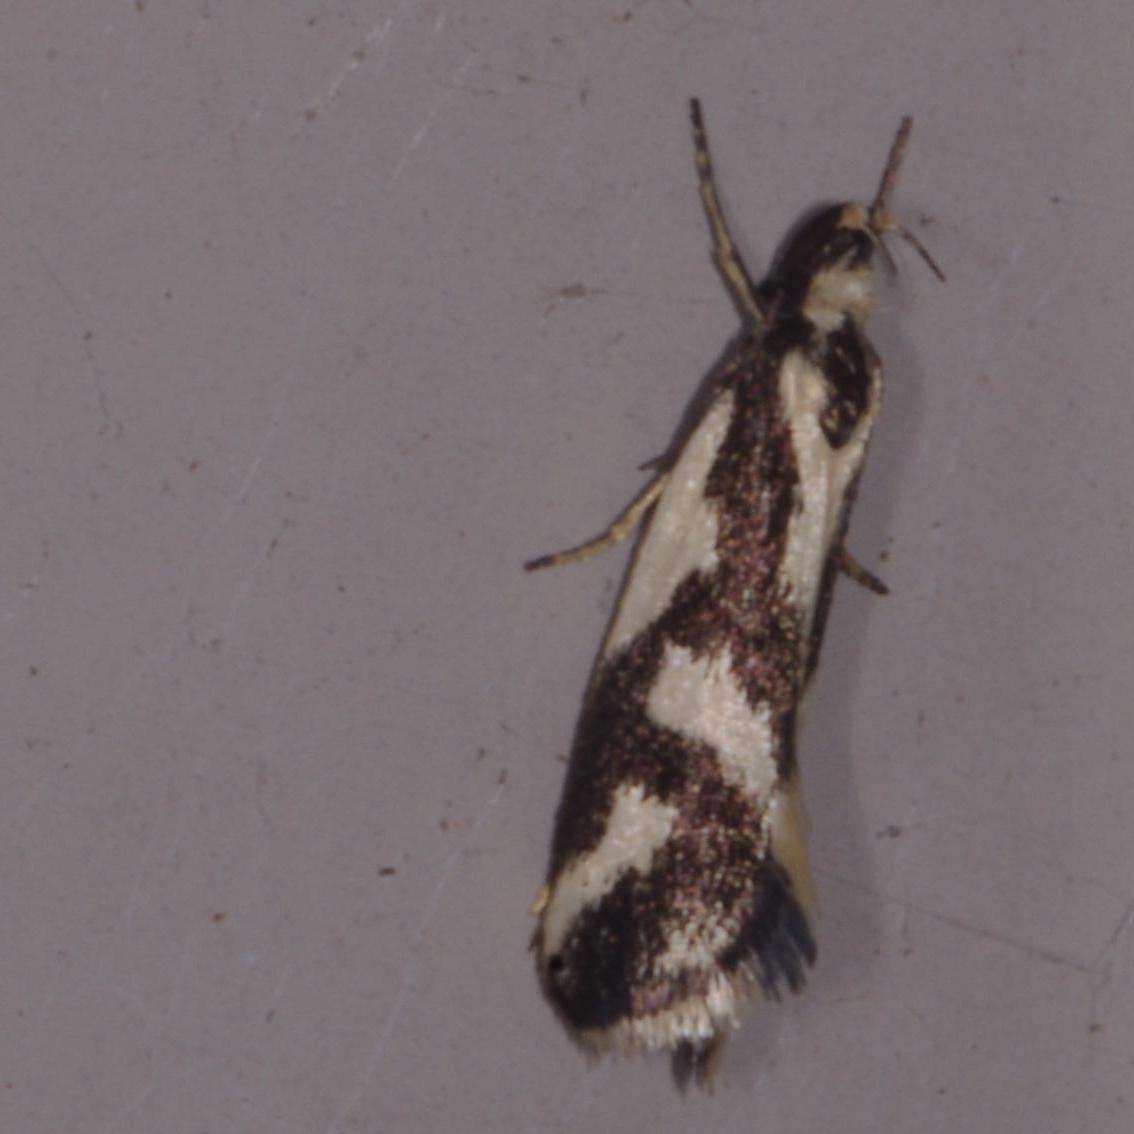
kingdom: Animalia
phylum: Arthropoda
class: Insecta
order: Lepidoptera
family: Oecophoridae
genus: Epithymema
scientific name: Epithymema incomposita
